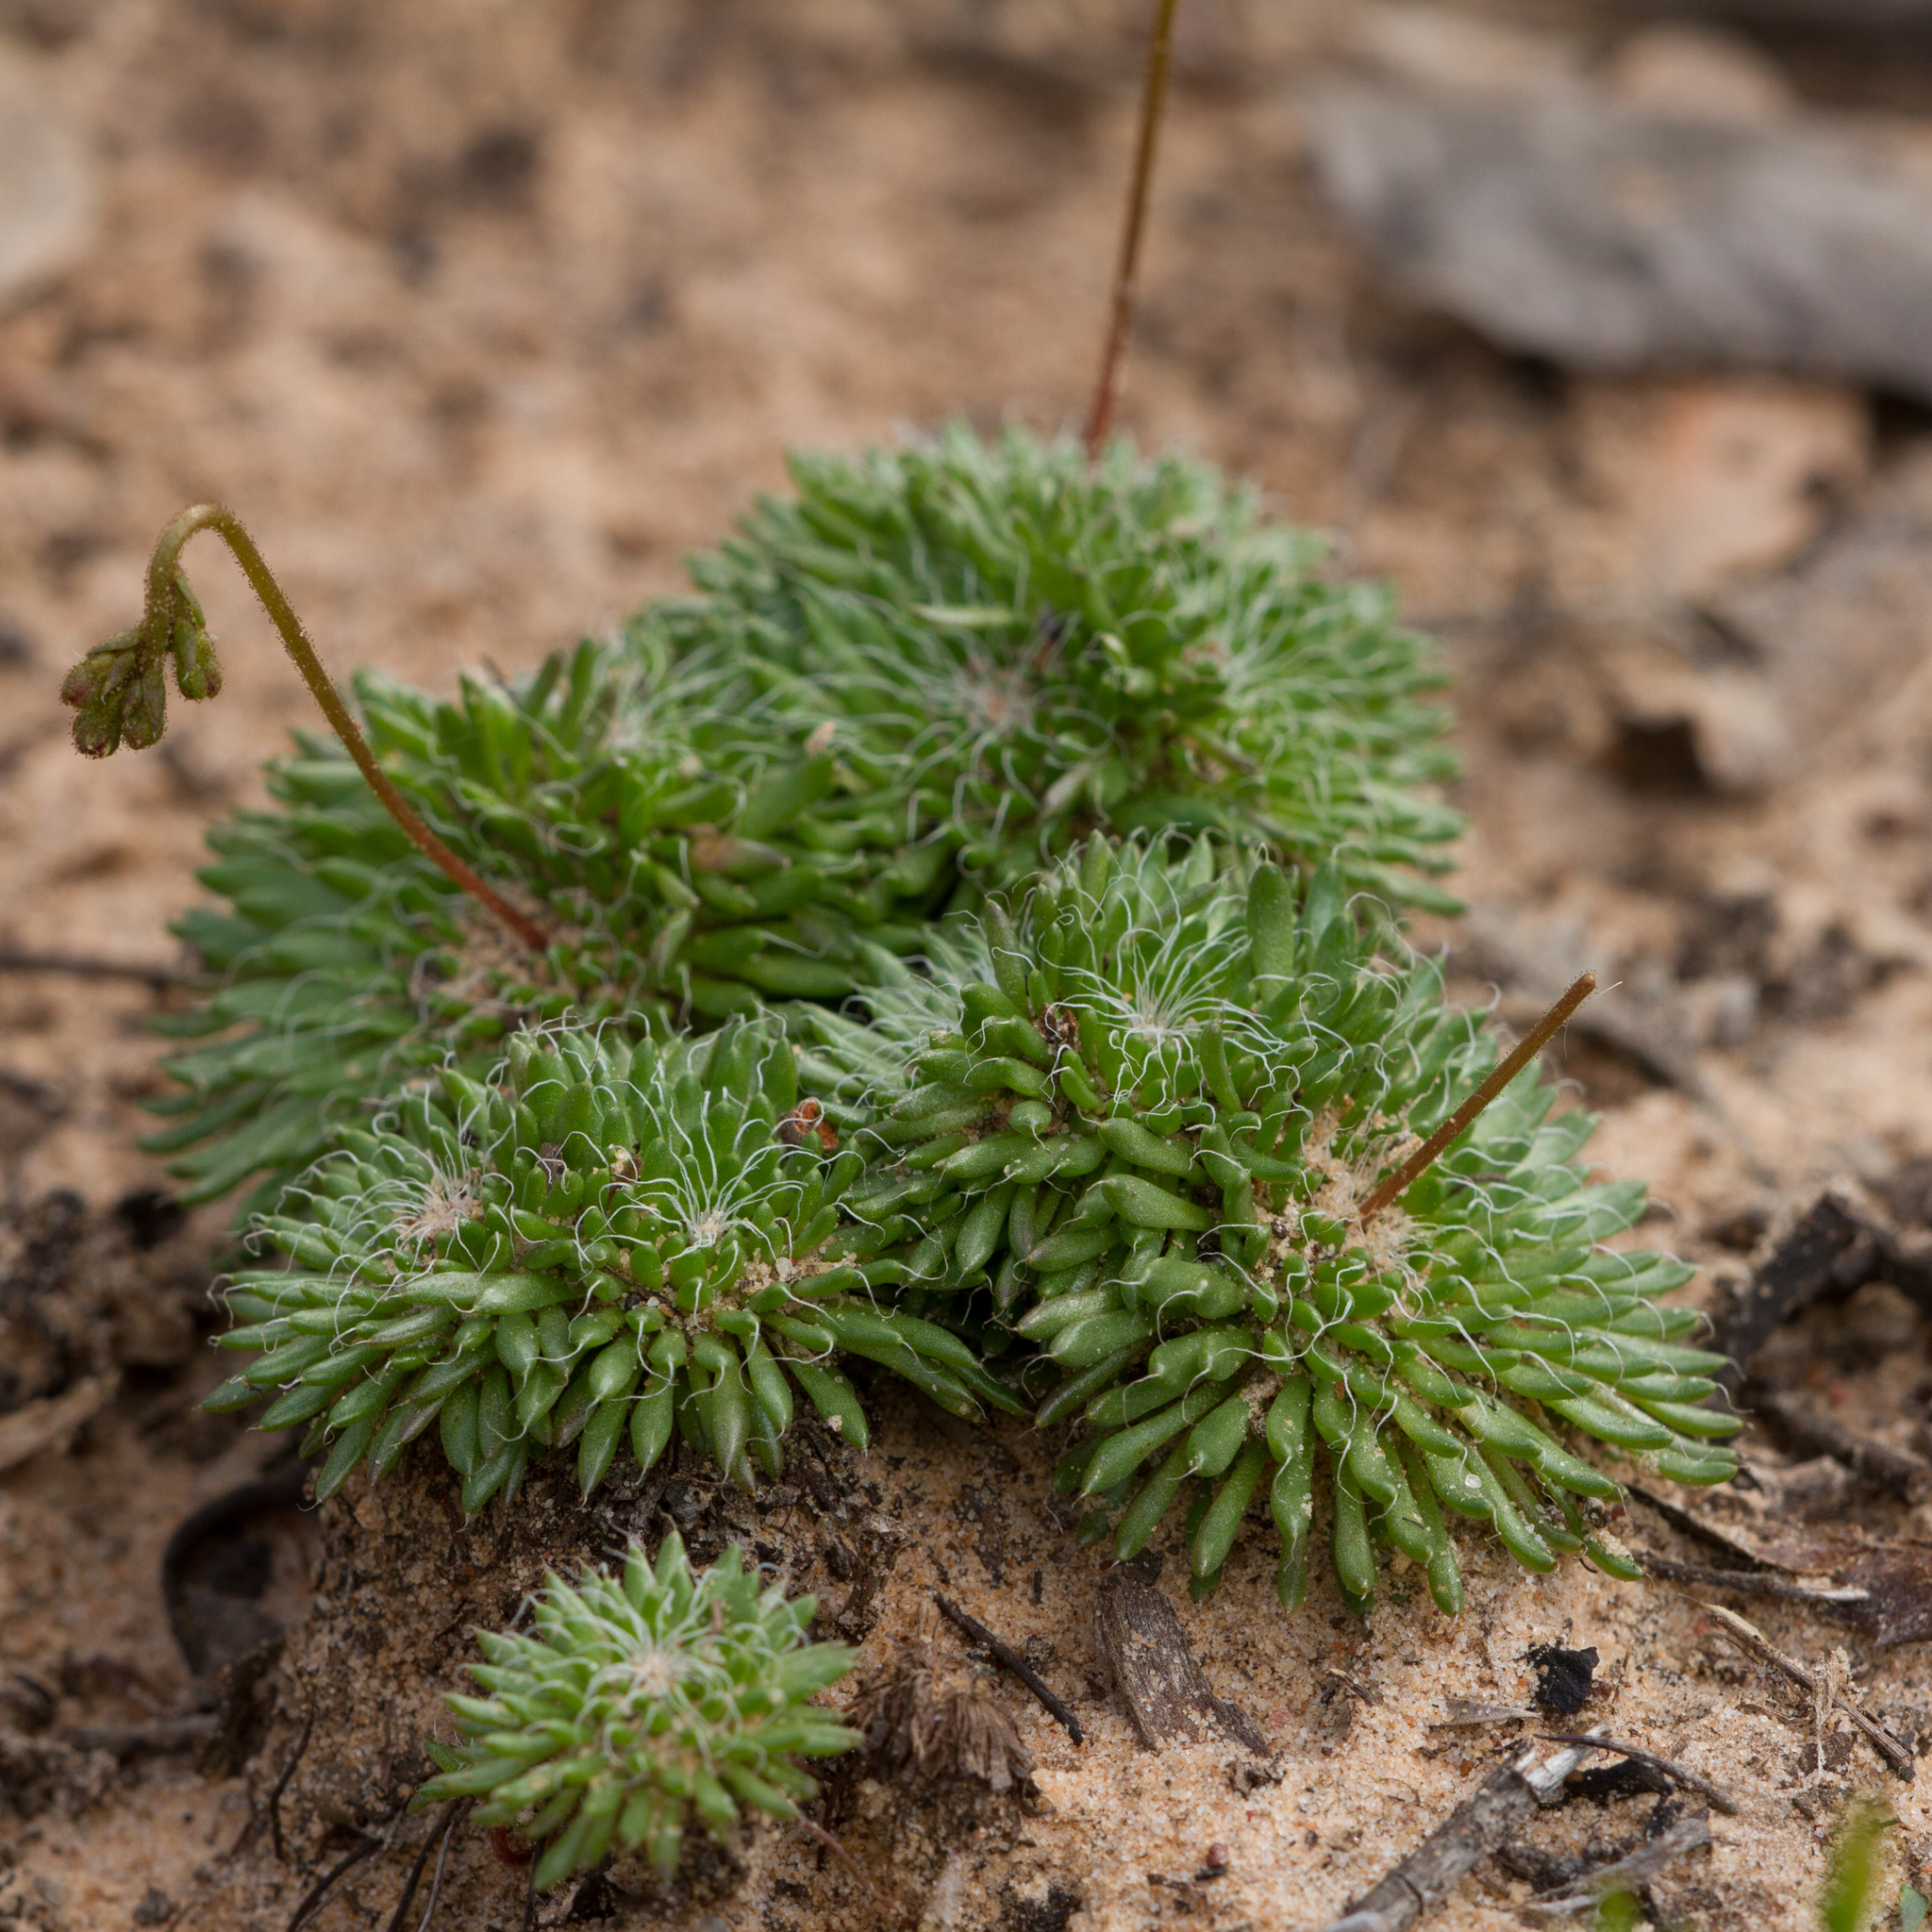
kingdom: Plantae
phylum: Tracheophyta
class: Magnoliopsida
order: Asterales
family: Stylidiaceae
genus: Stylidium
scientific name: Stylidium soboliferum
